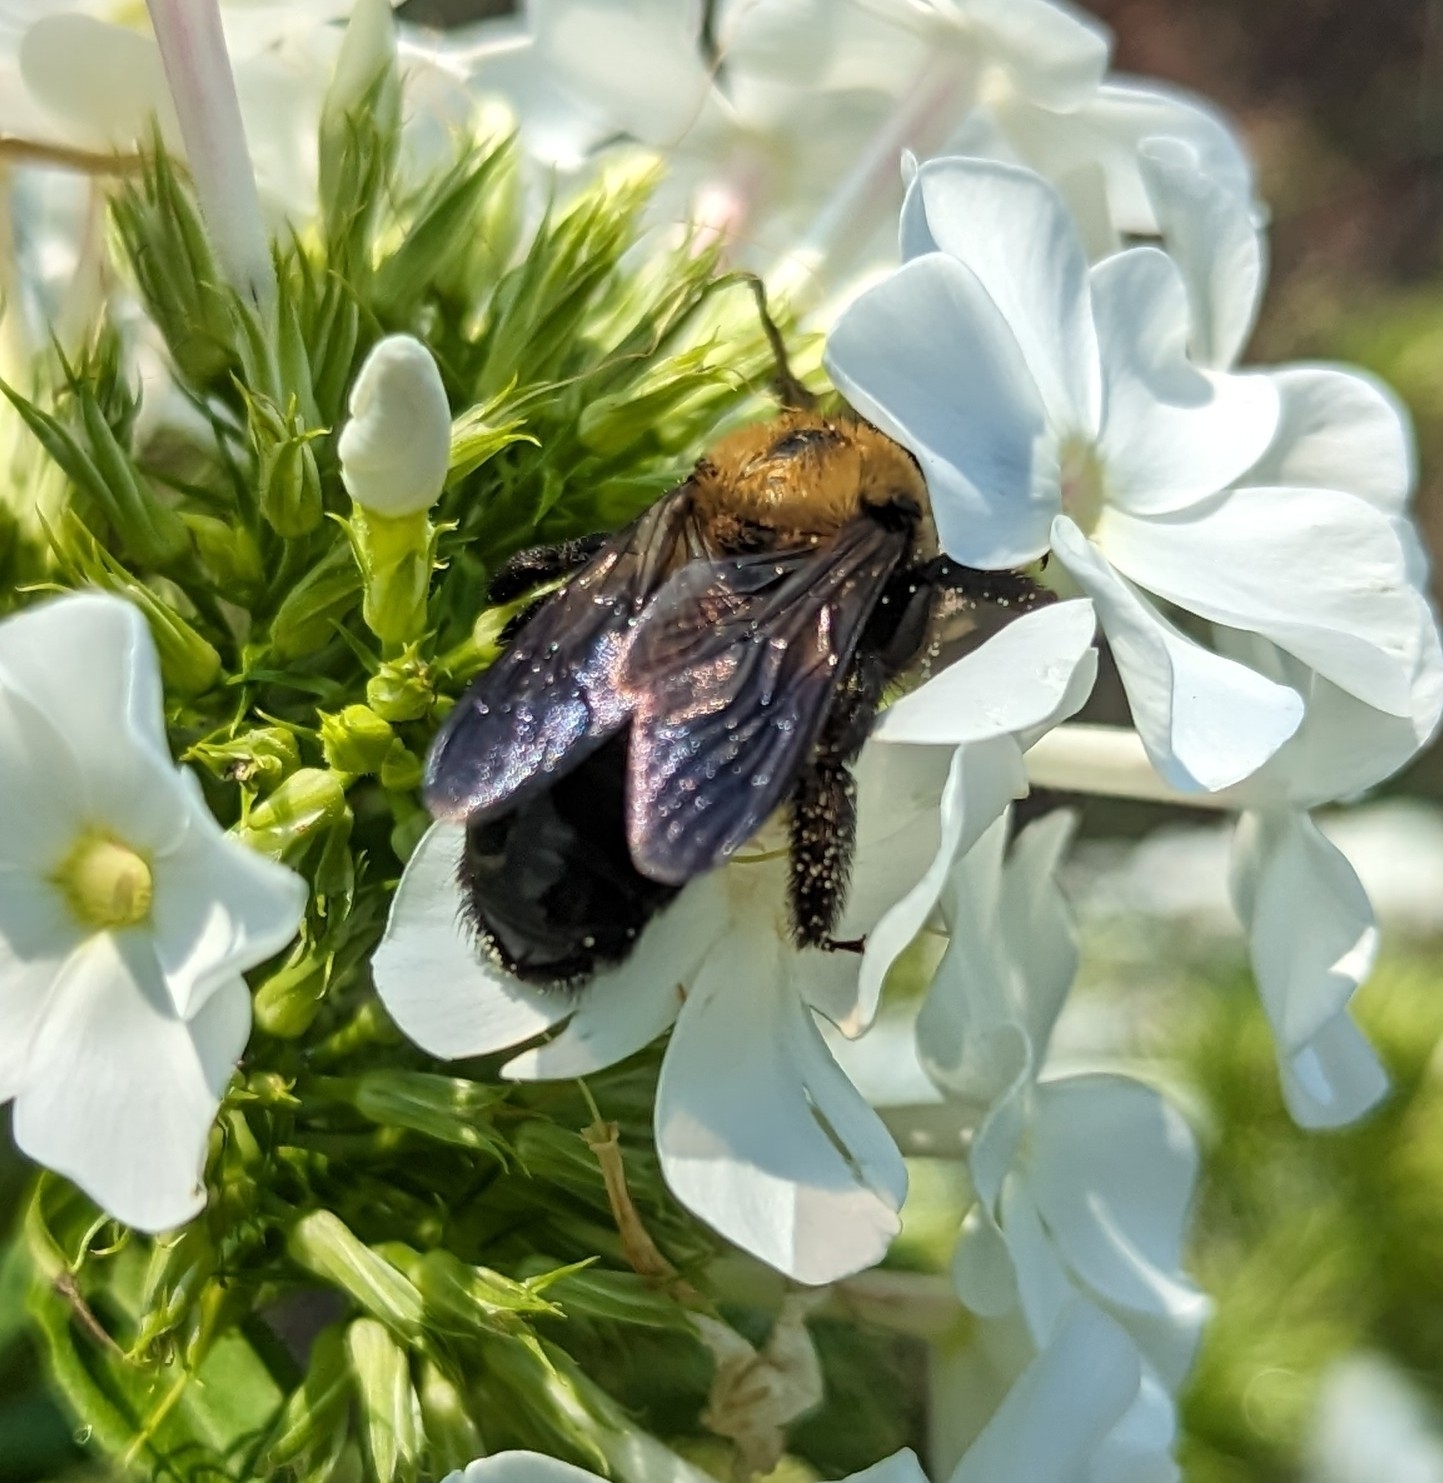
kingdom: Animalia
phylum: Arthropoda
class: Insecta
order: Hymenoptera
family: Apidae
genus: Xylocopa
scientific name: Xylocopa virginica
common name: Carpenter bee
